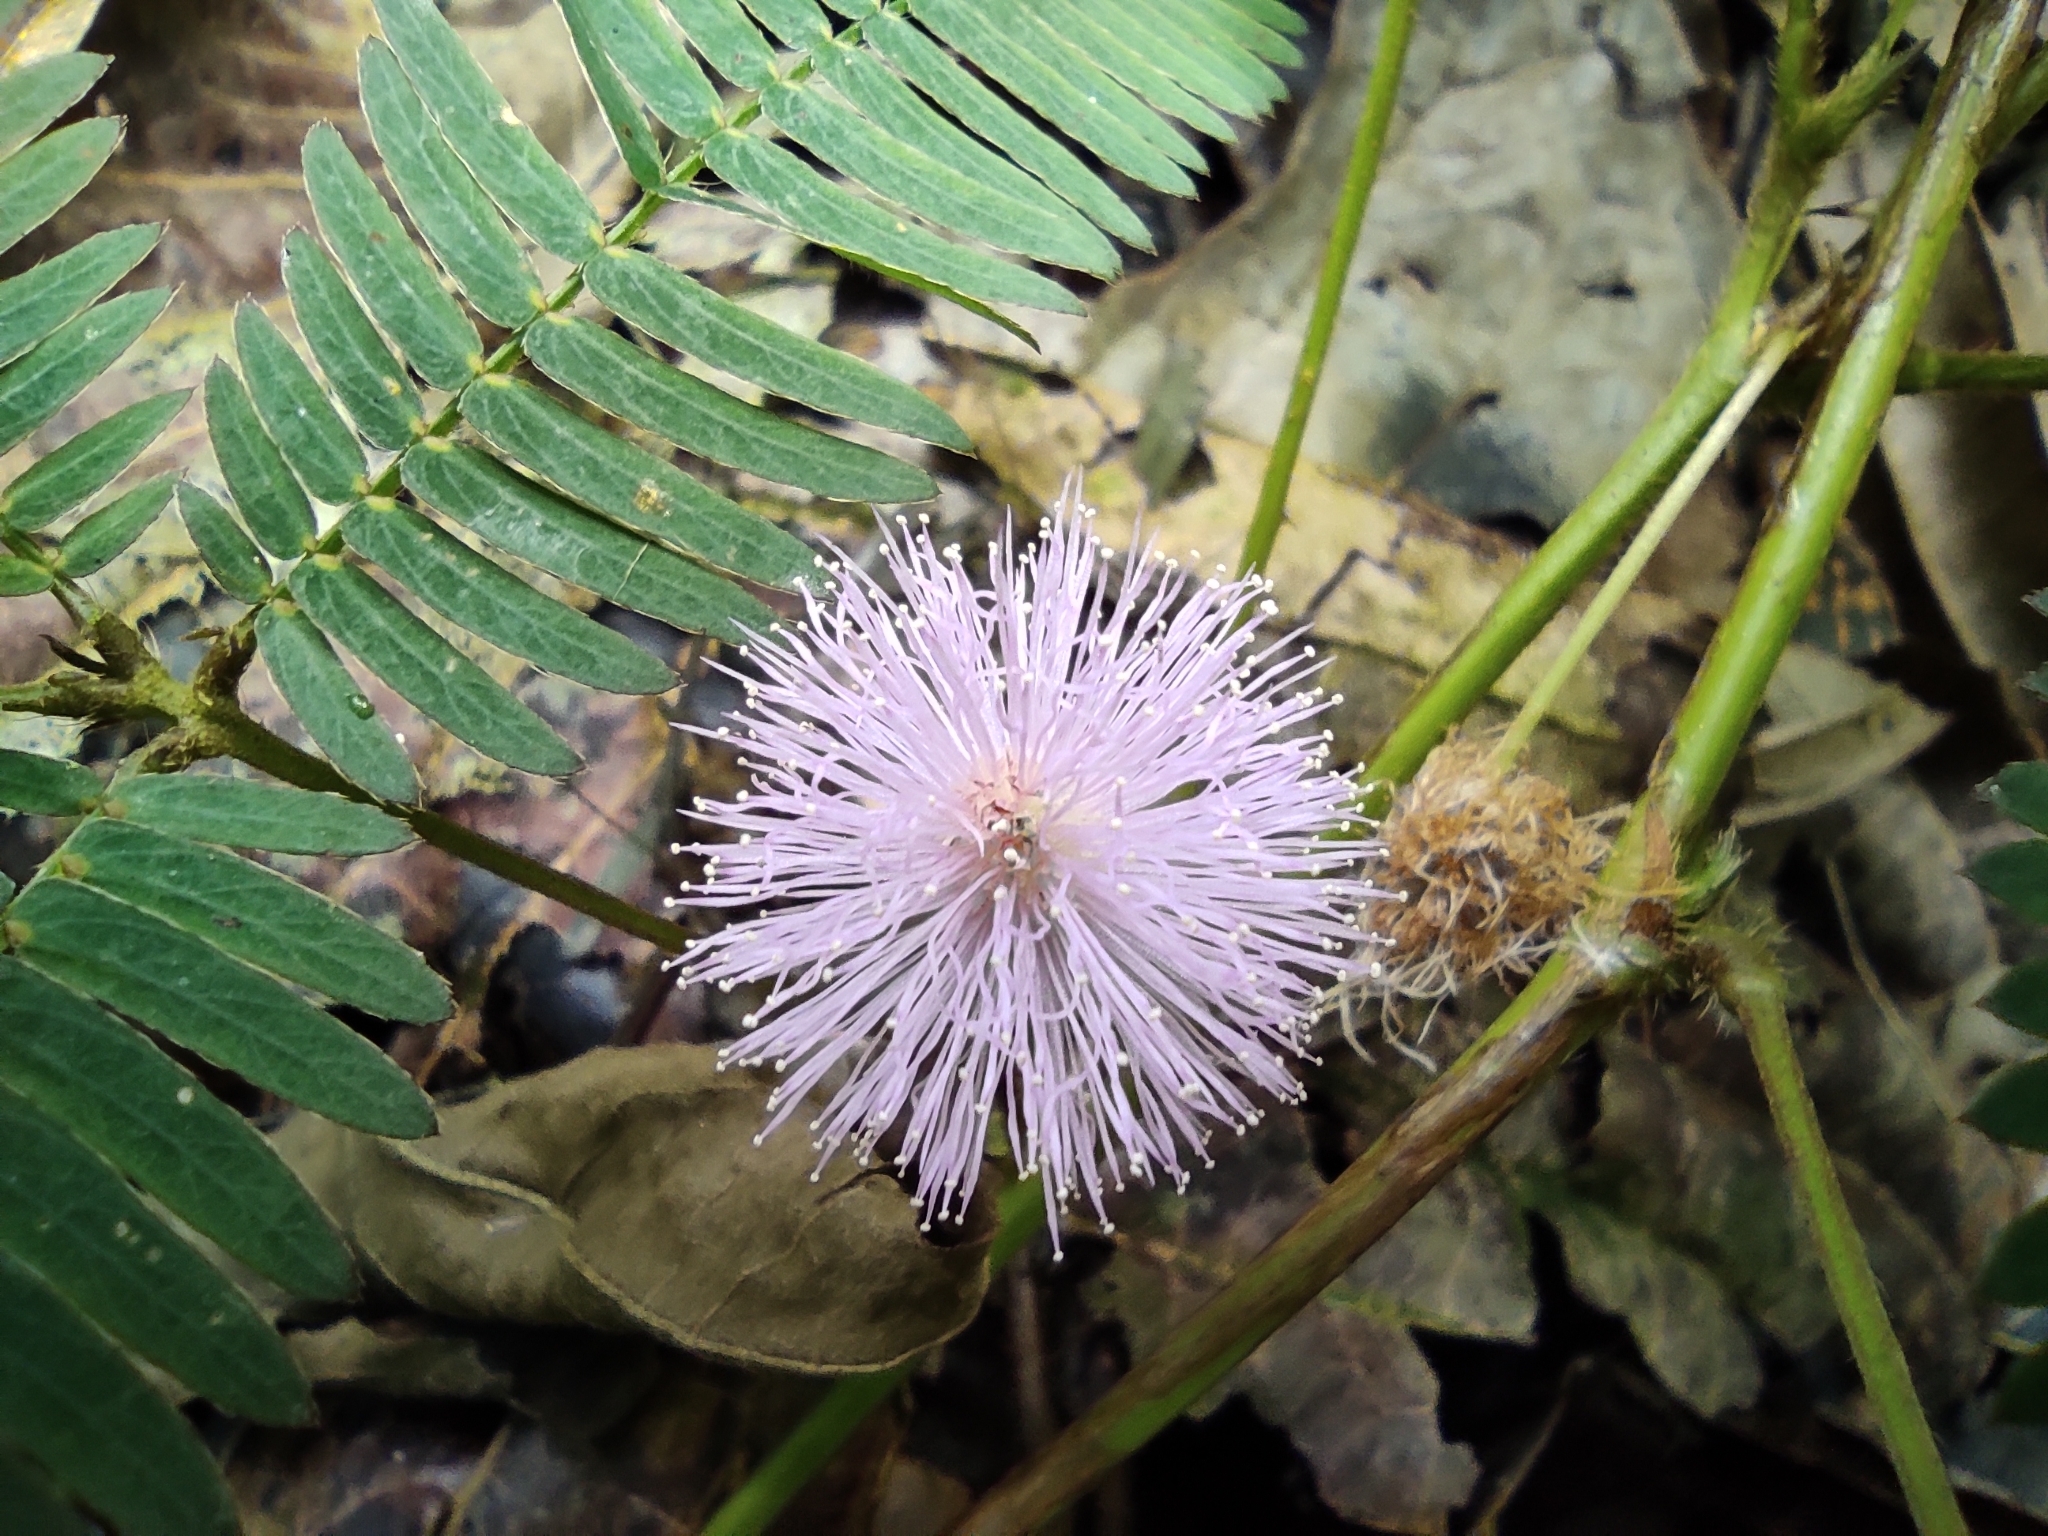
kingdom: Plantae
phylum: Tracheophyta
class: Magnoliopsida
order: Fabales
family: Fabaceae
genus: Mimosa
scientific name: Mimosa pudica
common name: Sensitive plant
